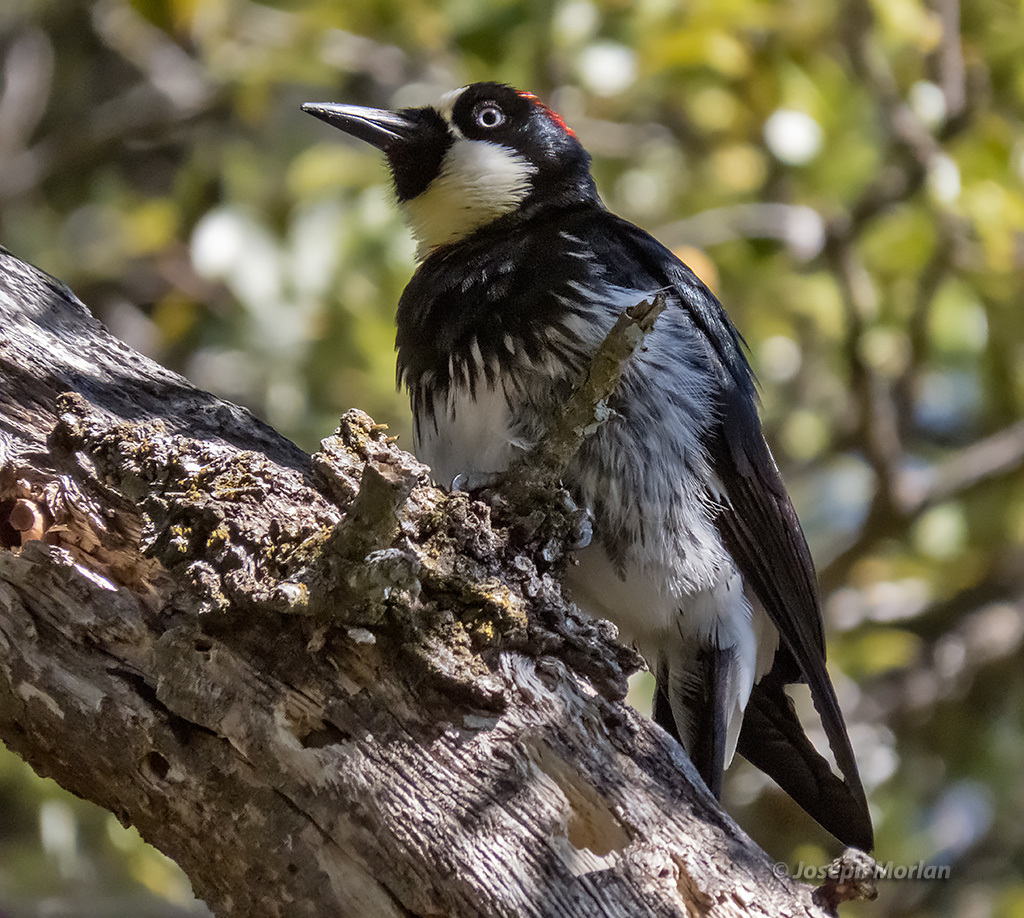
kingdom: Animalia
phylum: Chordata
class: Aves
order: Piciformes
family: Picidae
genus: Melanerpes
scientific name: Melanerpes formicivorus
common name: Acorn woodpecker
